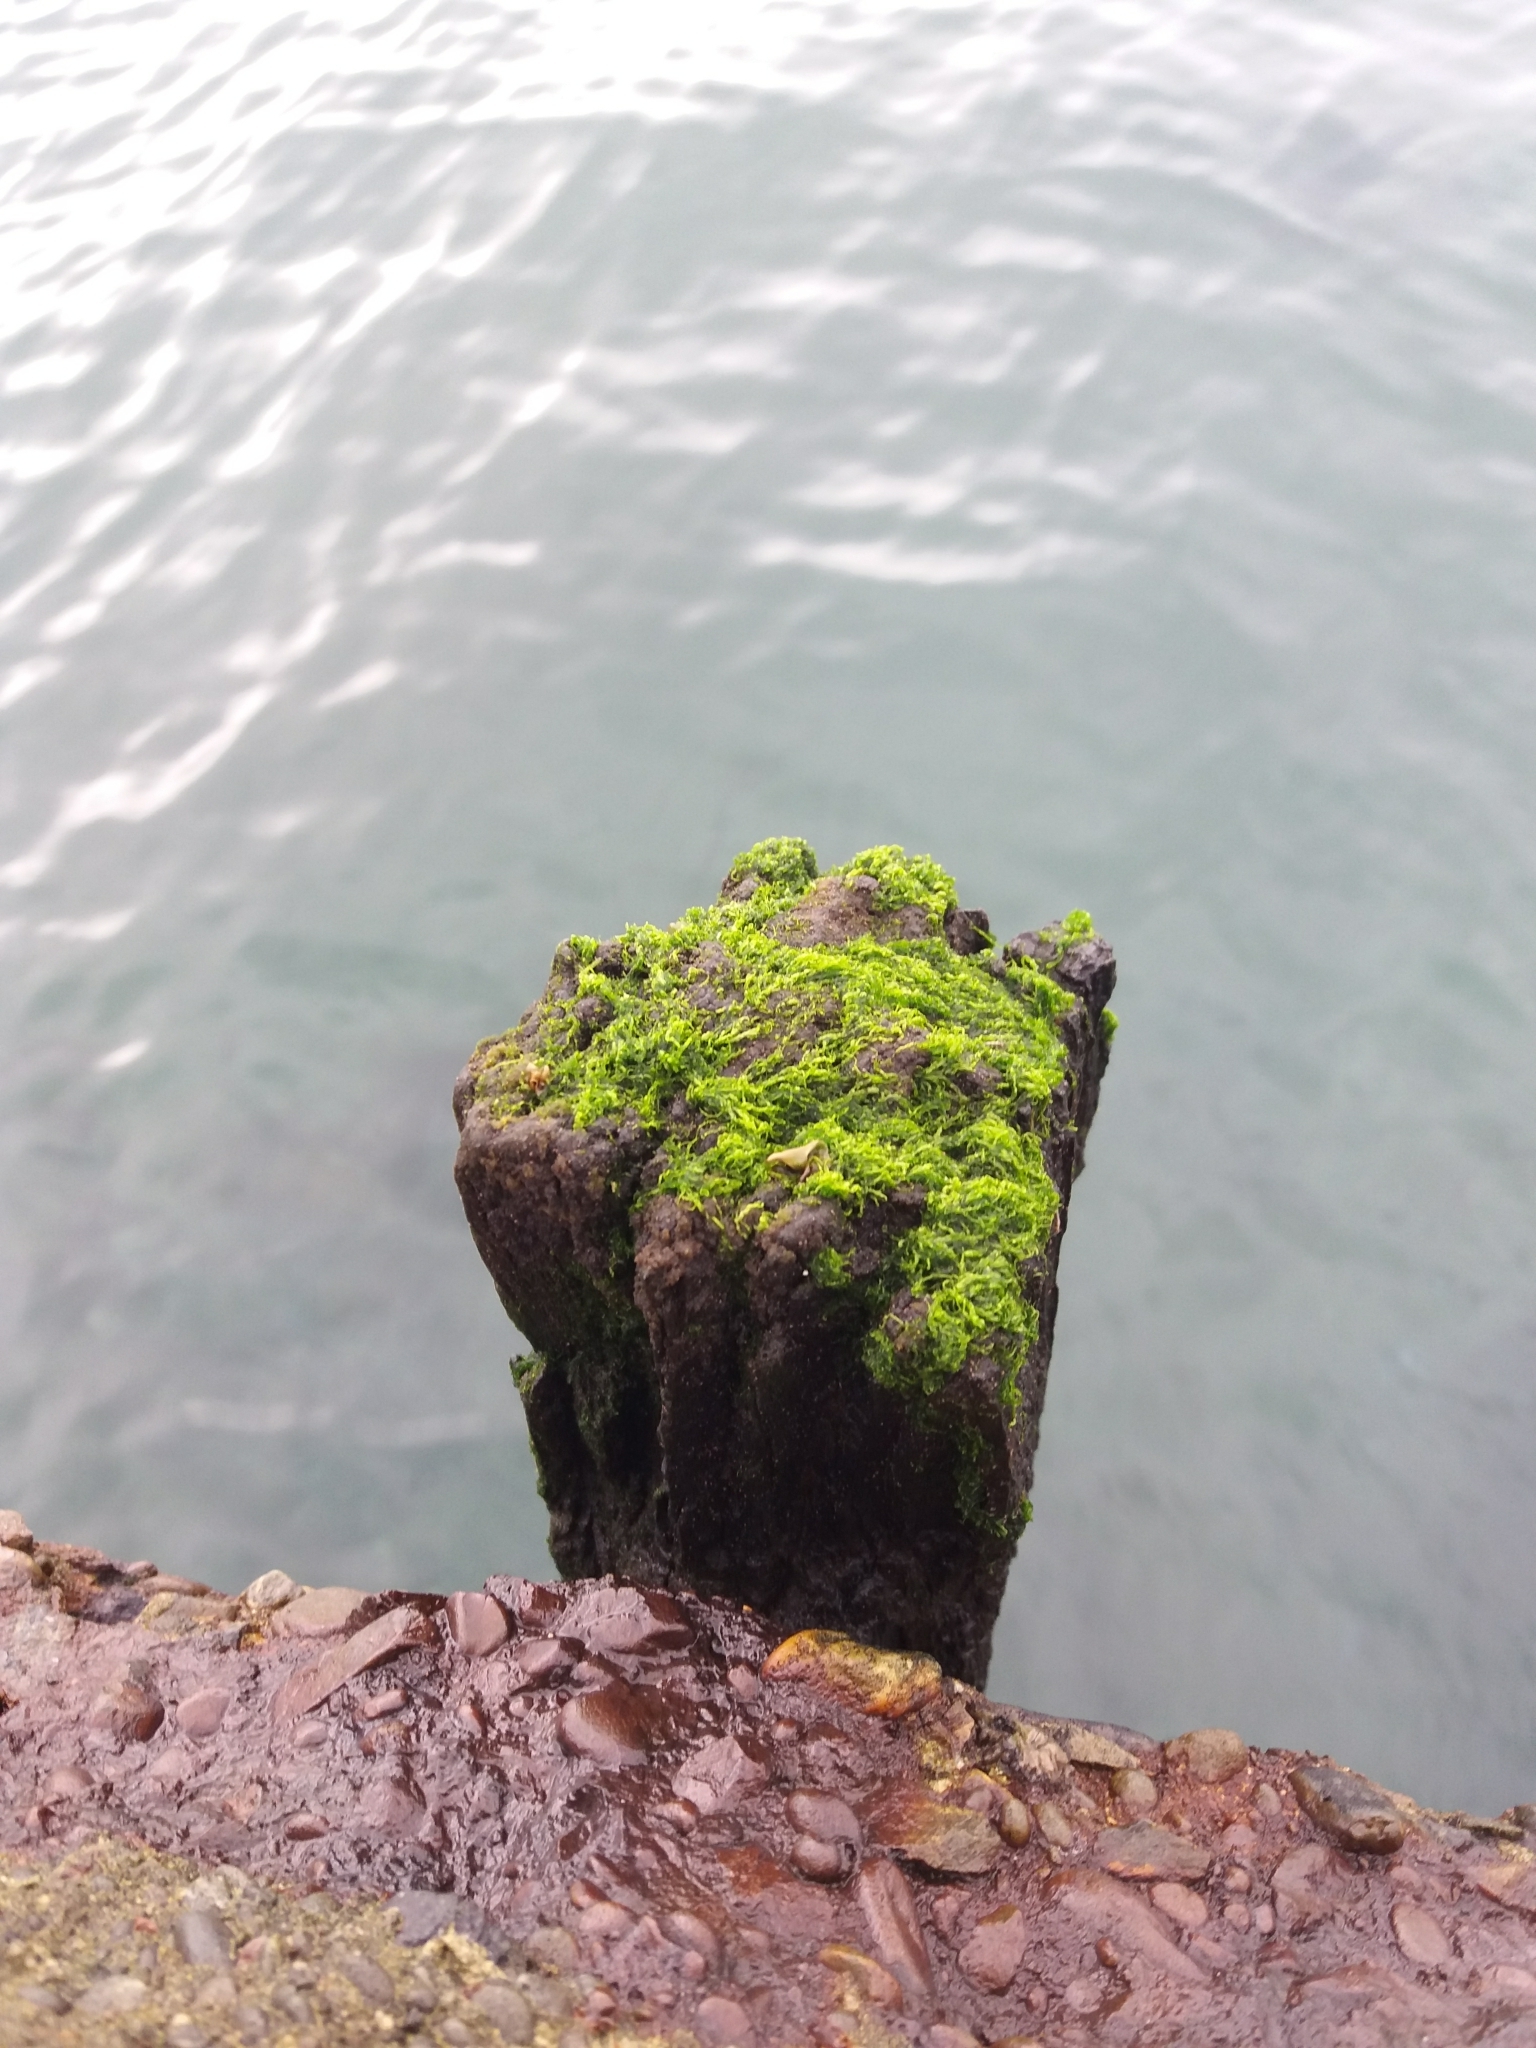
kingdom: Plantae
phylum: Chlorophyta
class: Ulvophyceae
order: Ulvales
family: Ulvaceae
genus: Ulva
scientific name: Ulva intestinalis
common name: Gut weed
